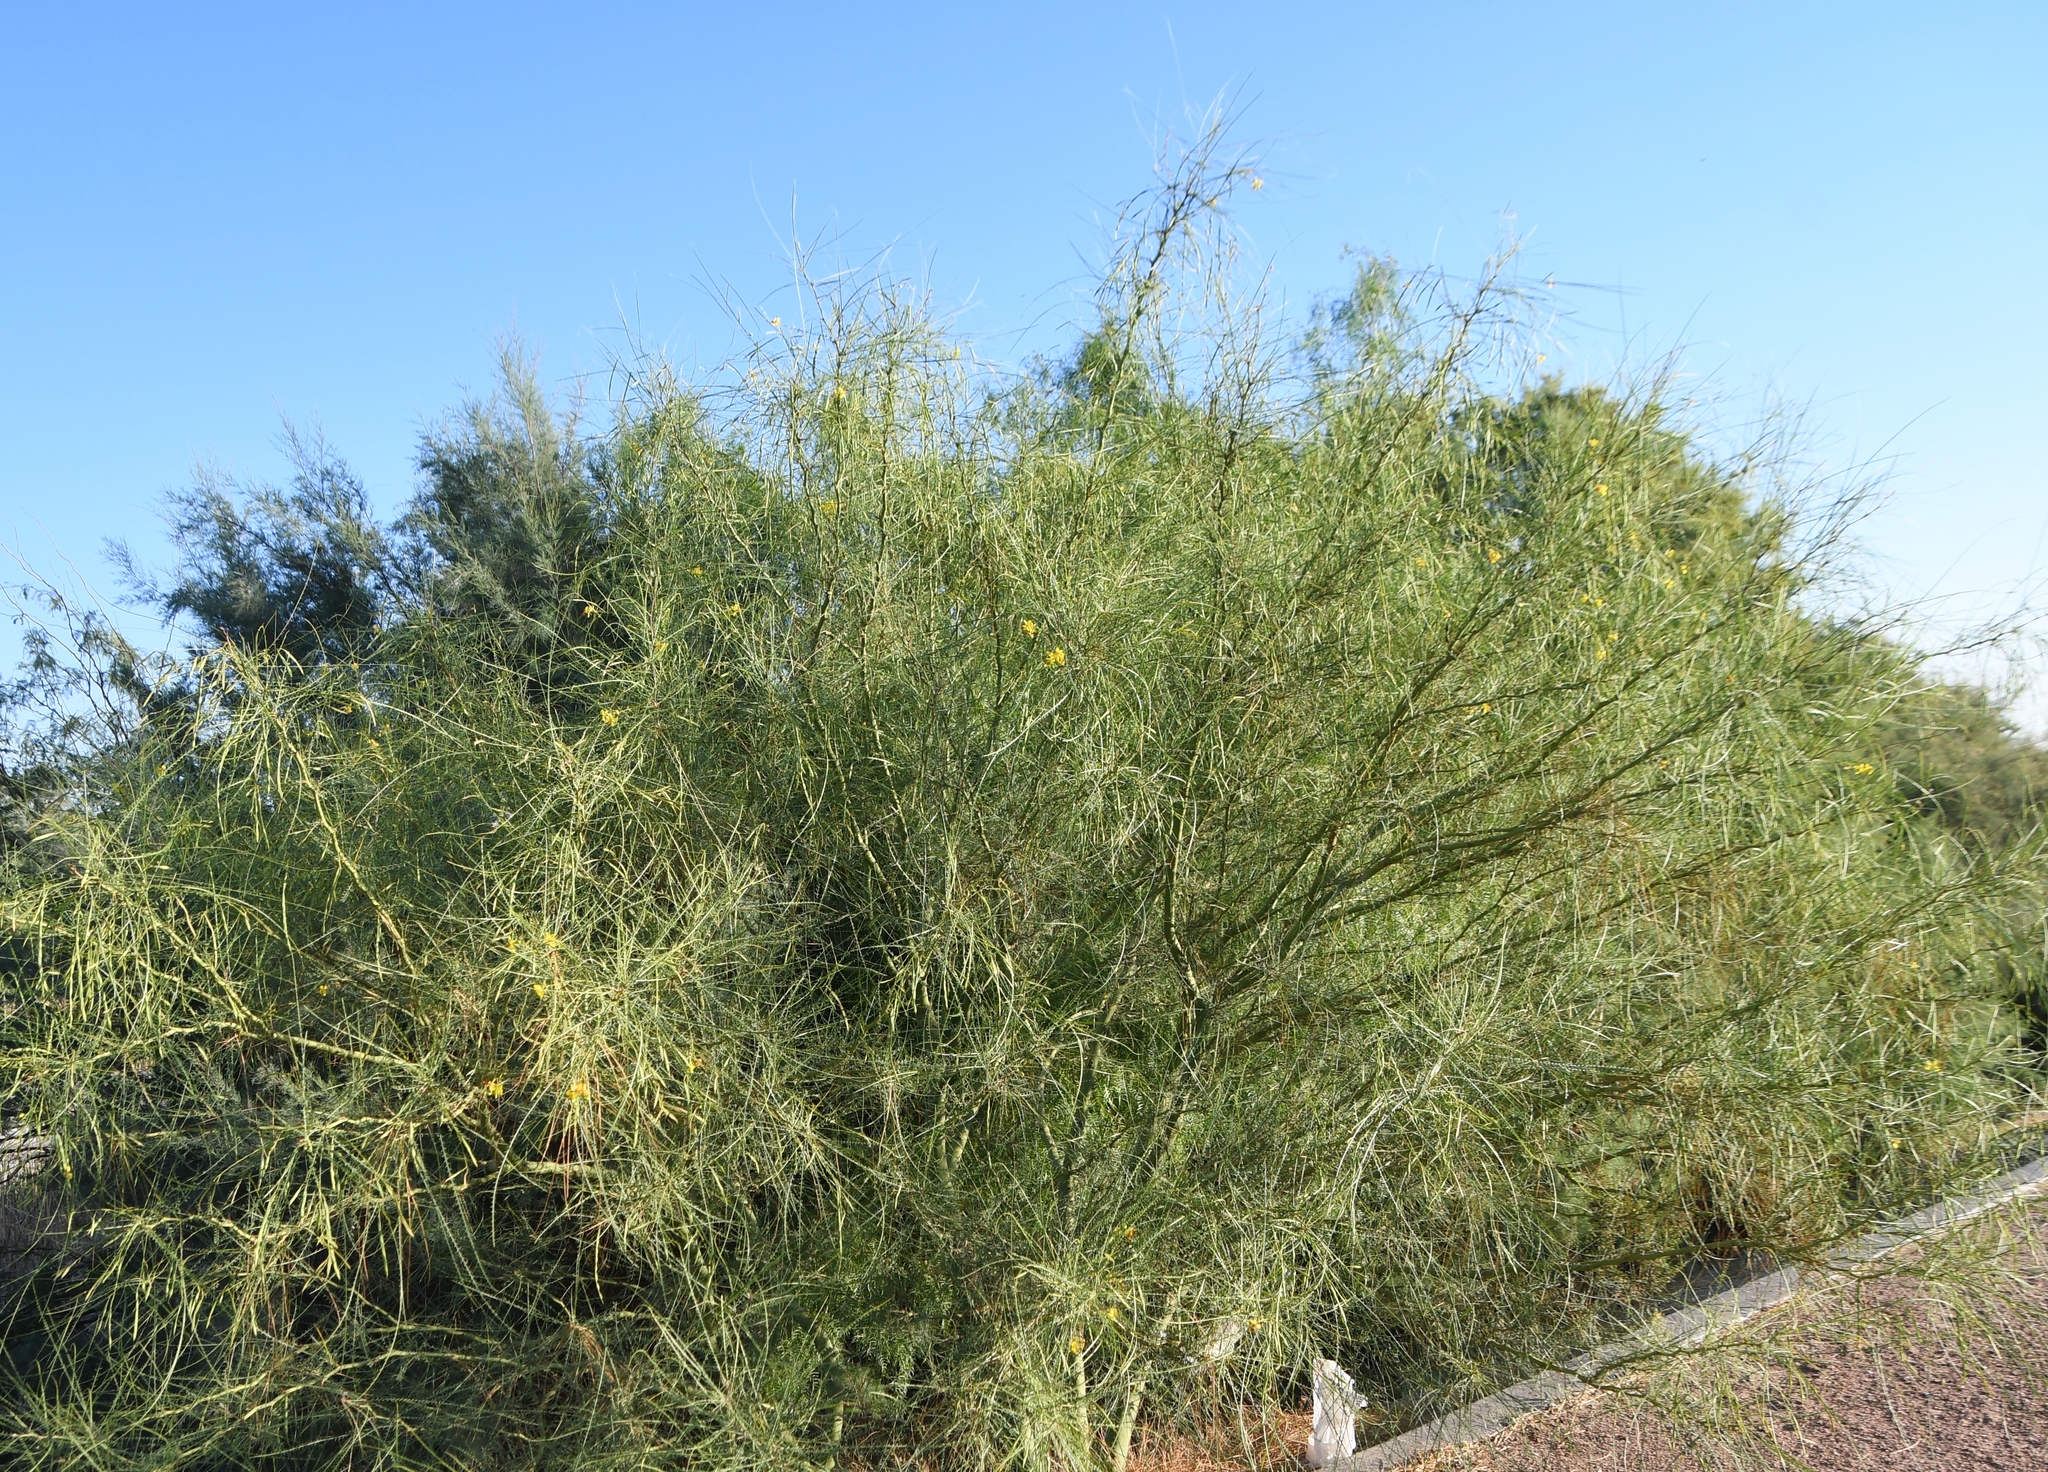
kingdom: Plantae
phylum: Tracheophyta
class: Magnoliopsida
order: Fabales
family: Fabaceae
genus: Parkinsonia
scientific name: Parkinsonia aculeata
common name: Jerusalem thorn
